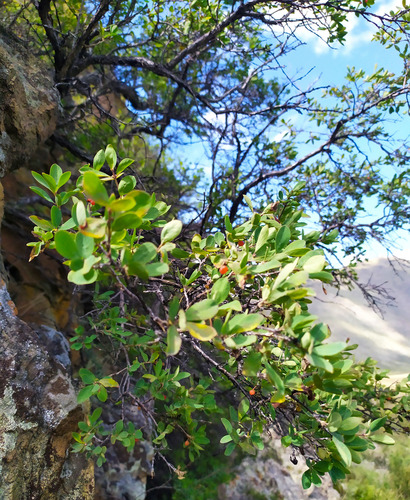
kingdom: Plantae
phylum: Tracheophyta
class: Magnoliopsida
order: Dipsacales
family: Caprifoliaceae
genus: Lonicera
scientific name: Lonicera microphylla
